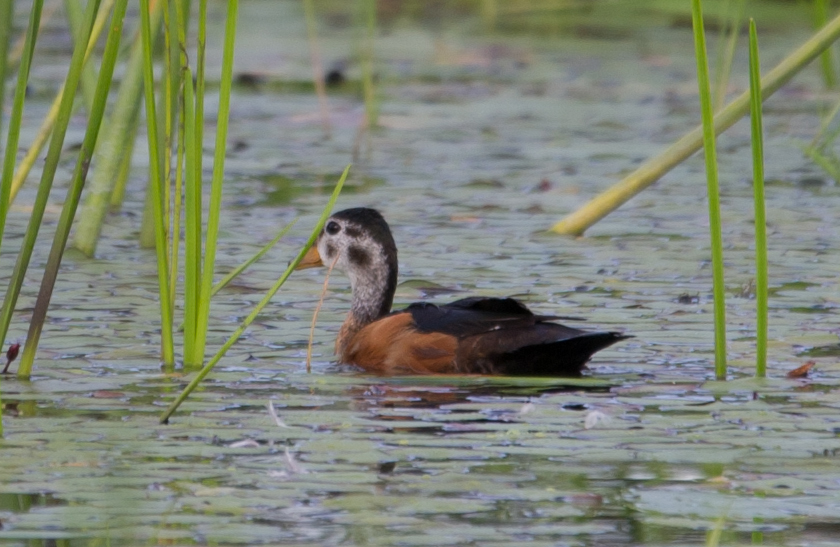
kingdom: Animalia
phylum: Chordata
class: Aves
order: Anseriformes
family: Anatidae
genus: Nettapus
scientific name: Nettapus auritus
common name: African pygmy-goose
